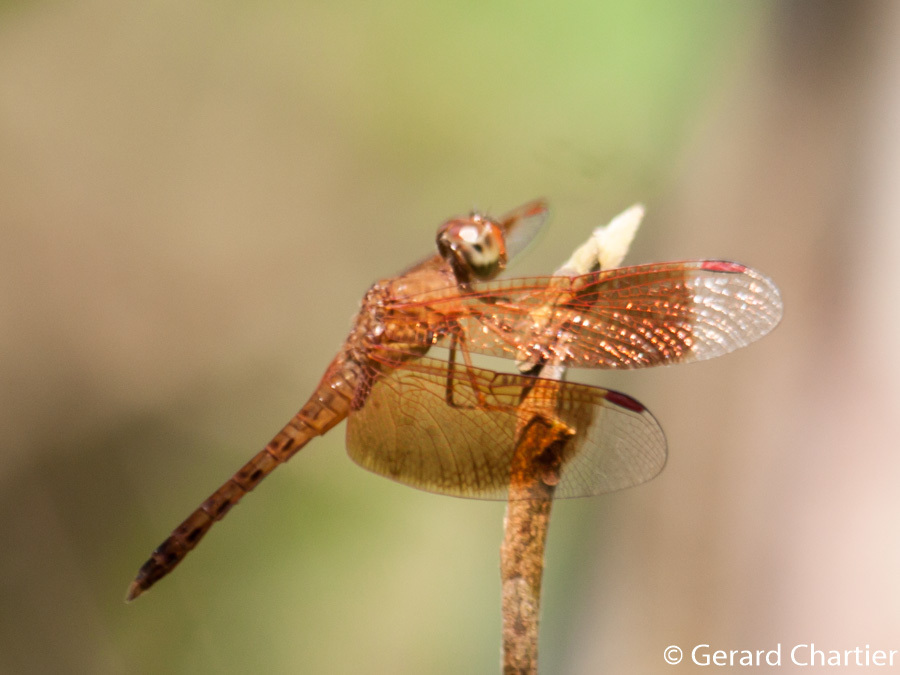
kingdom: Animalia
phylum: Arthropoda
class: Insecta
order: Odonata
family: Libellulidae
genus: Neurothemis
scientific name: Neurothemis fluctuans
